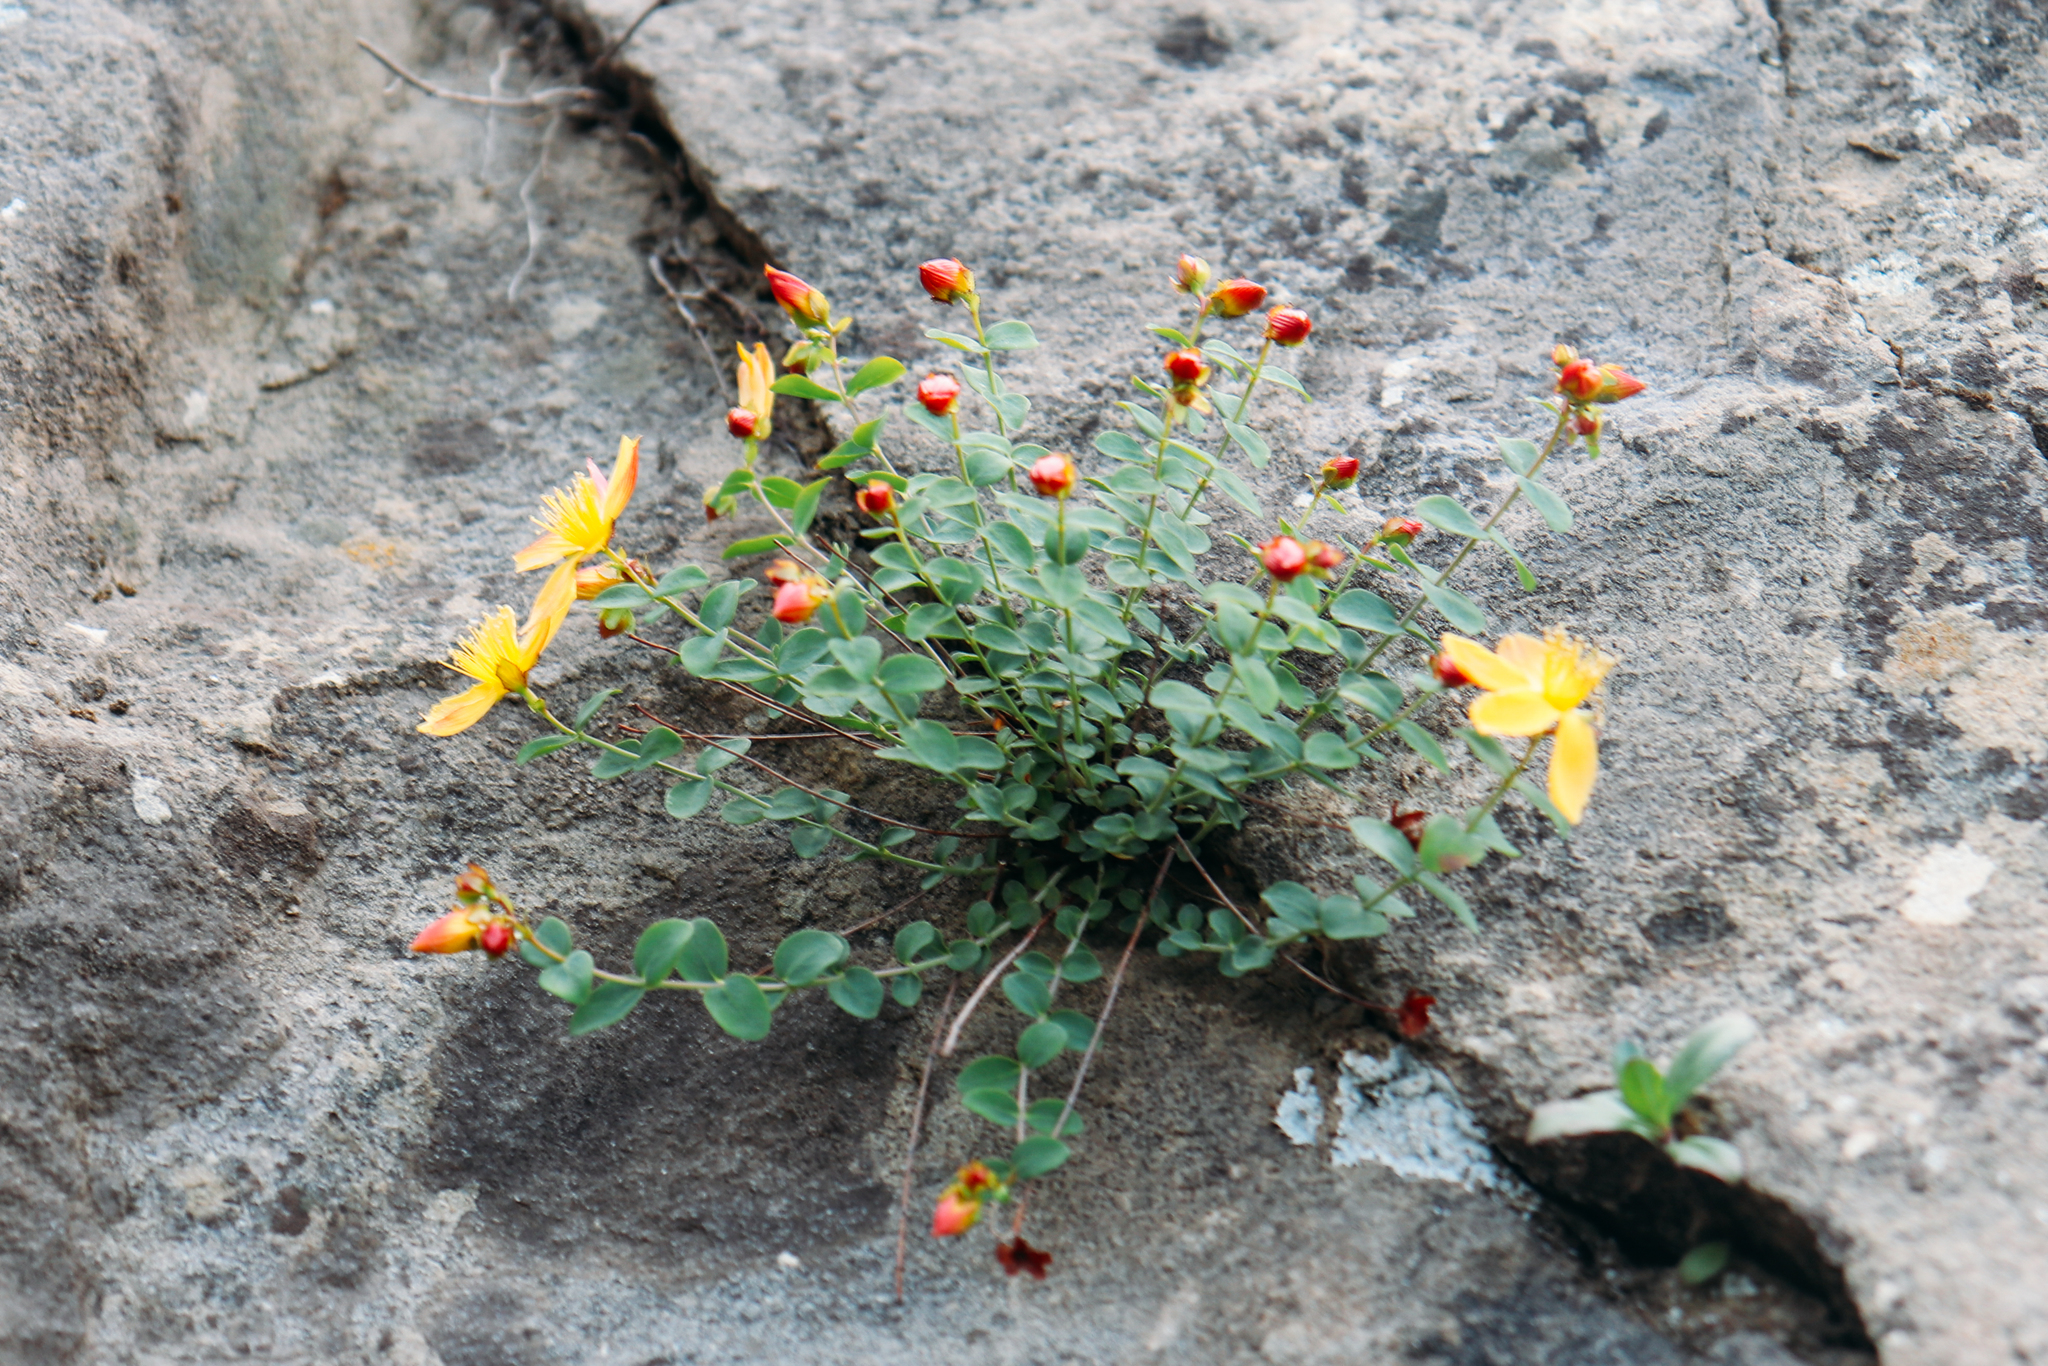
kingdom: Plantae
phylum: Tracheophyta
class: Magnoliopsida
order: Malpighiales
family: Hypericaceae
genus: Hypericum
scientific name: Hypericum nummularioides
